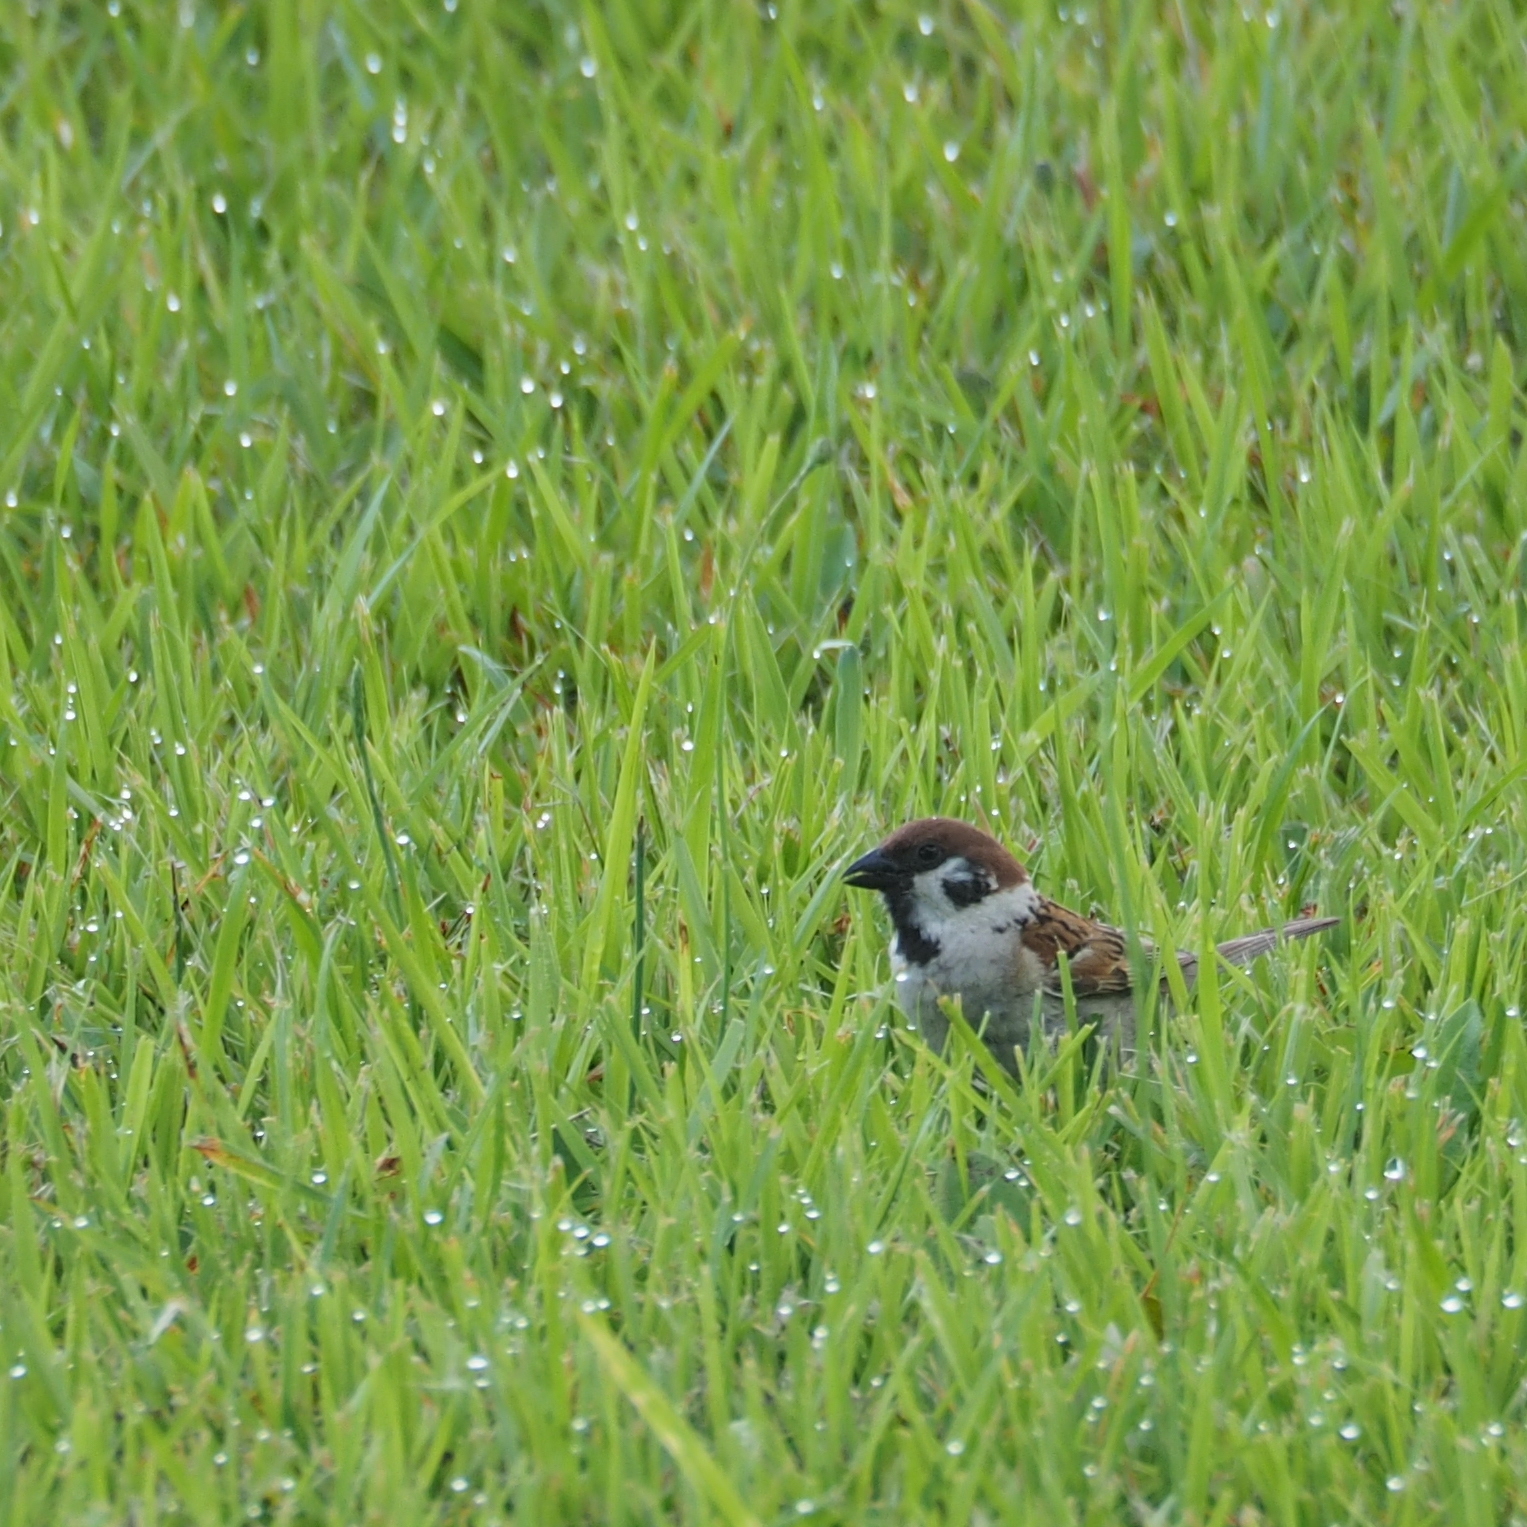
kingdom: Animalia
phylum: Chordata
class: Aves
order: Passeriformes
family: Passeridae
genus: Passer
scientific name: Passer montanus
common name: Eurasian tree sparrow
